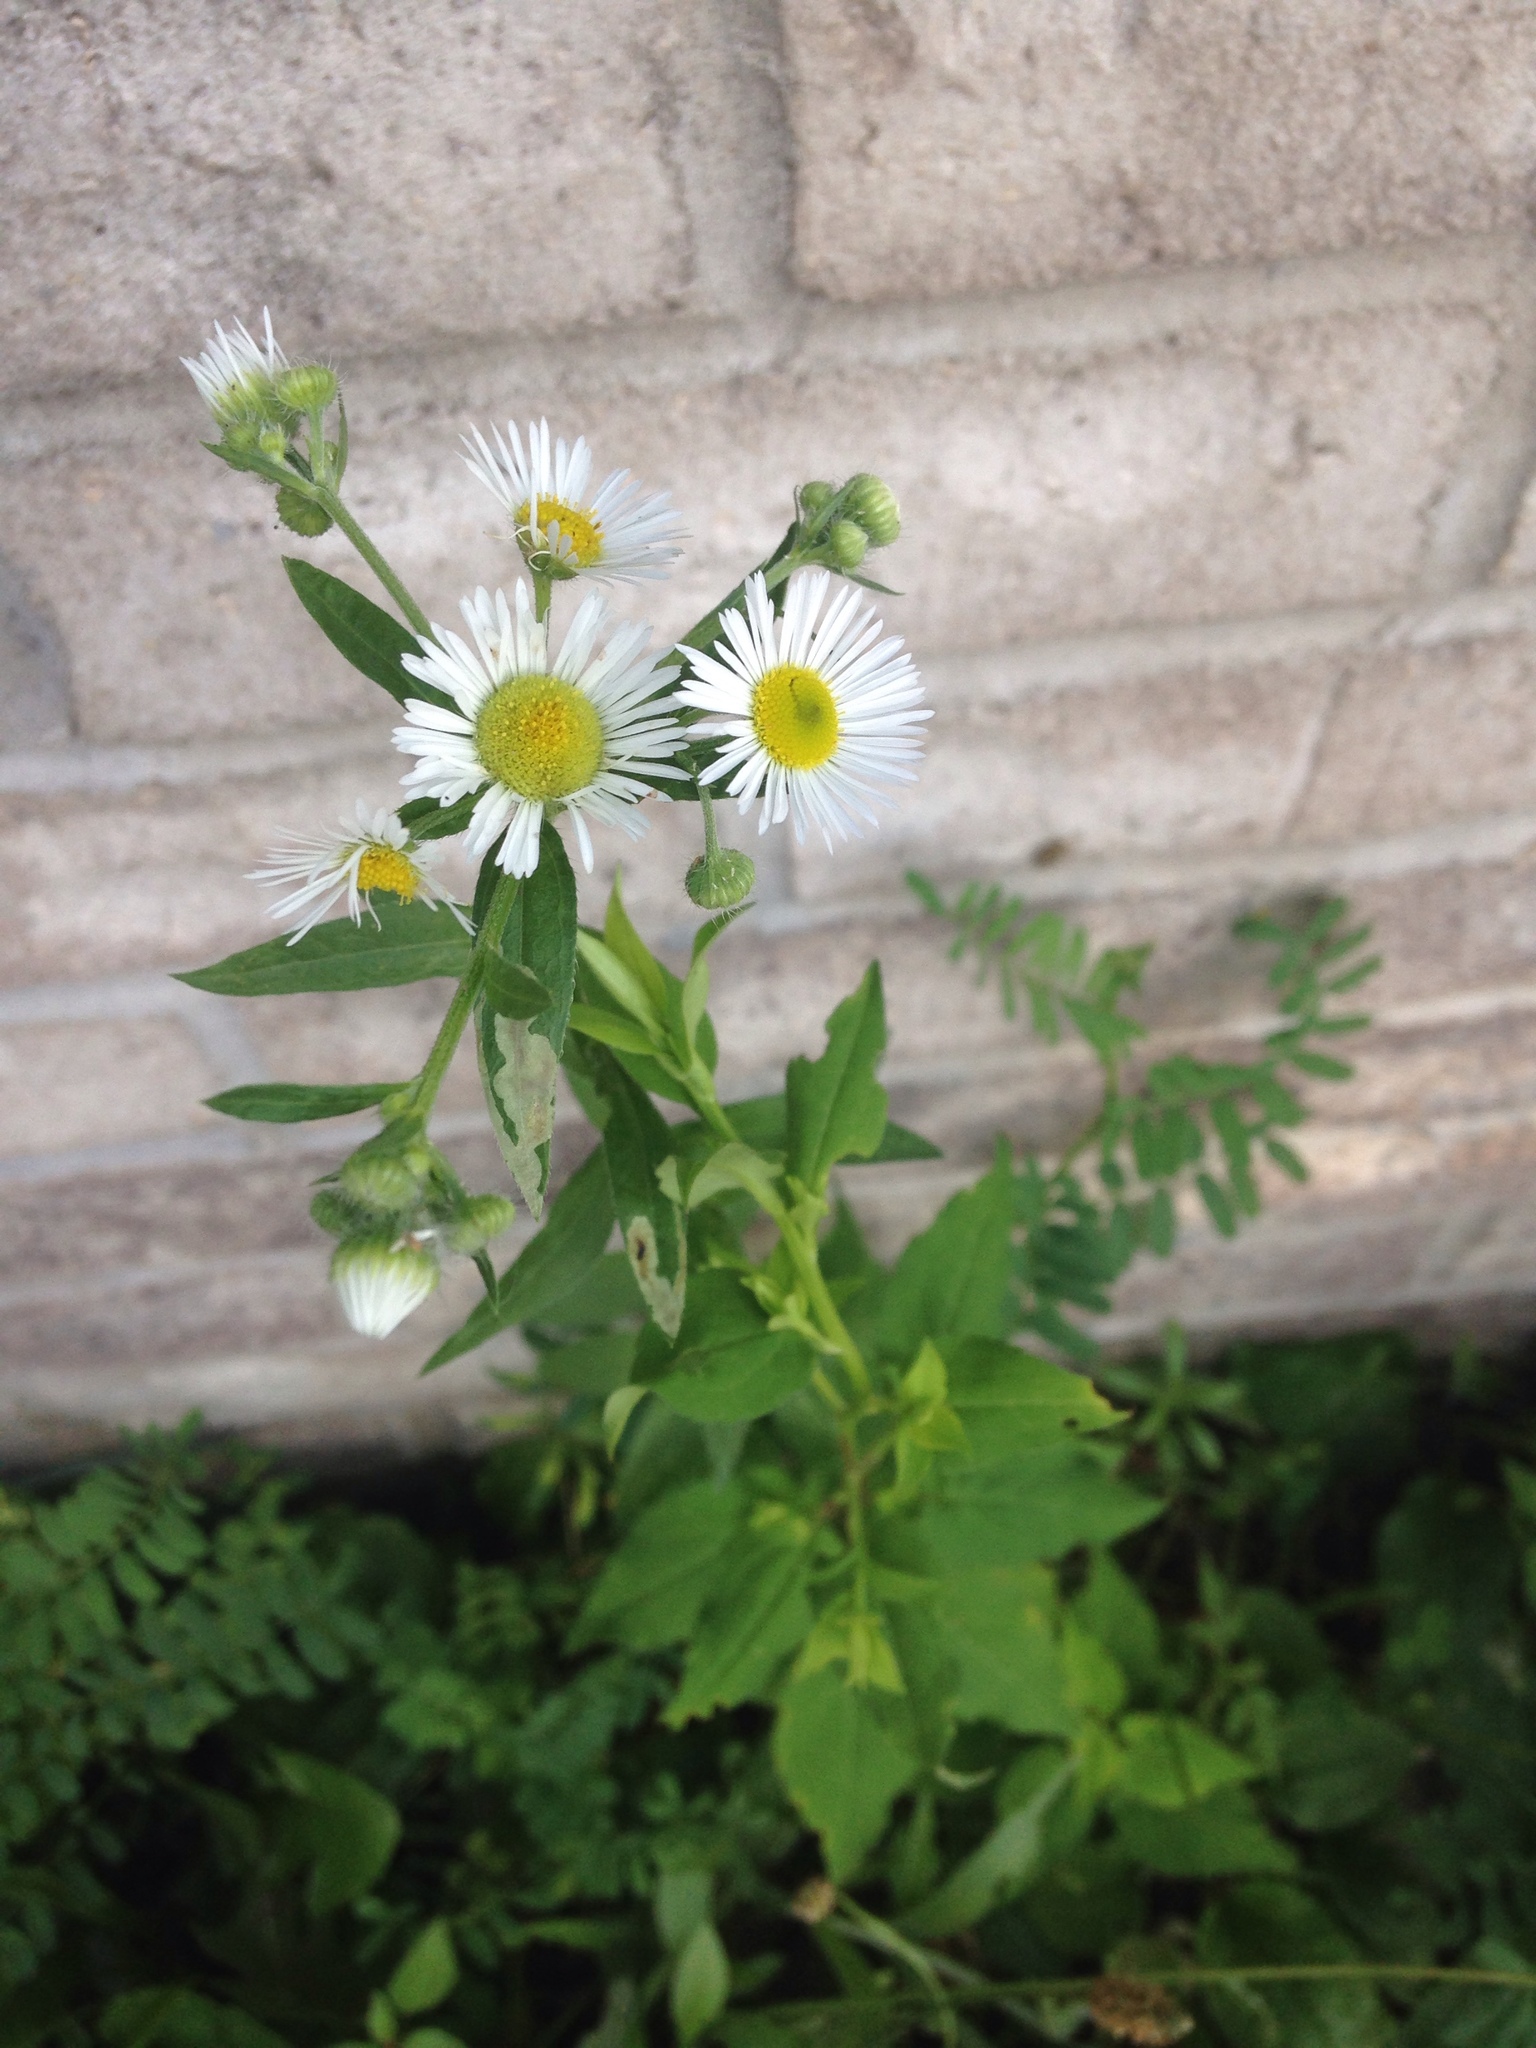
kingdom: Plantae
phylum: Tracheophyta
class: Magnoliopsida
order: Asterales
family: Asteraceae
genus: Erigeron
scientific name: Erigeron strigosus
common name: Common eastern fleabane
